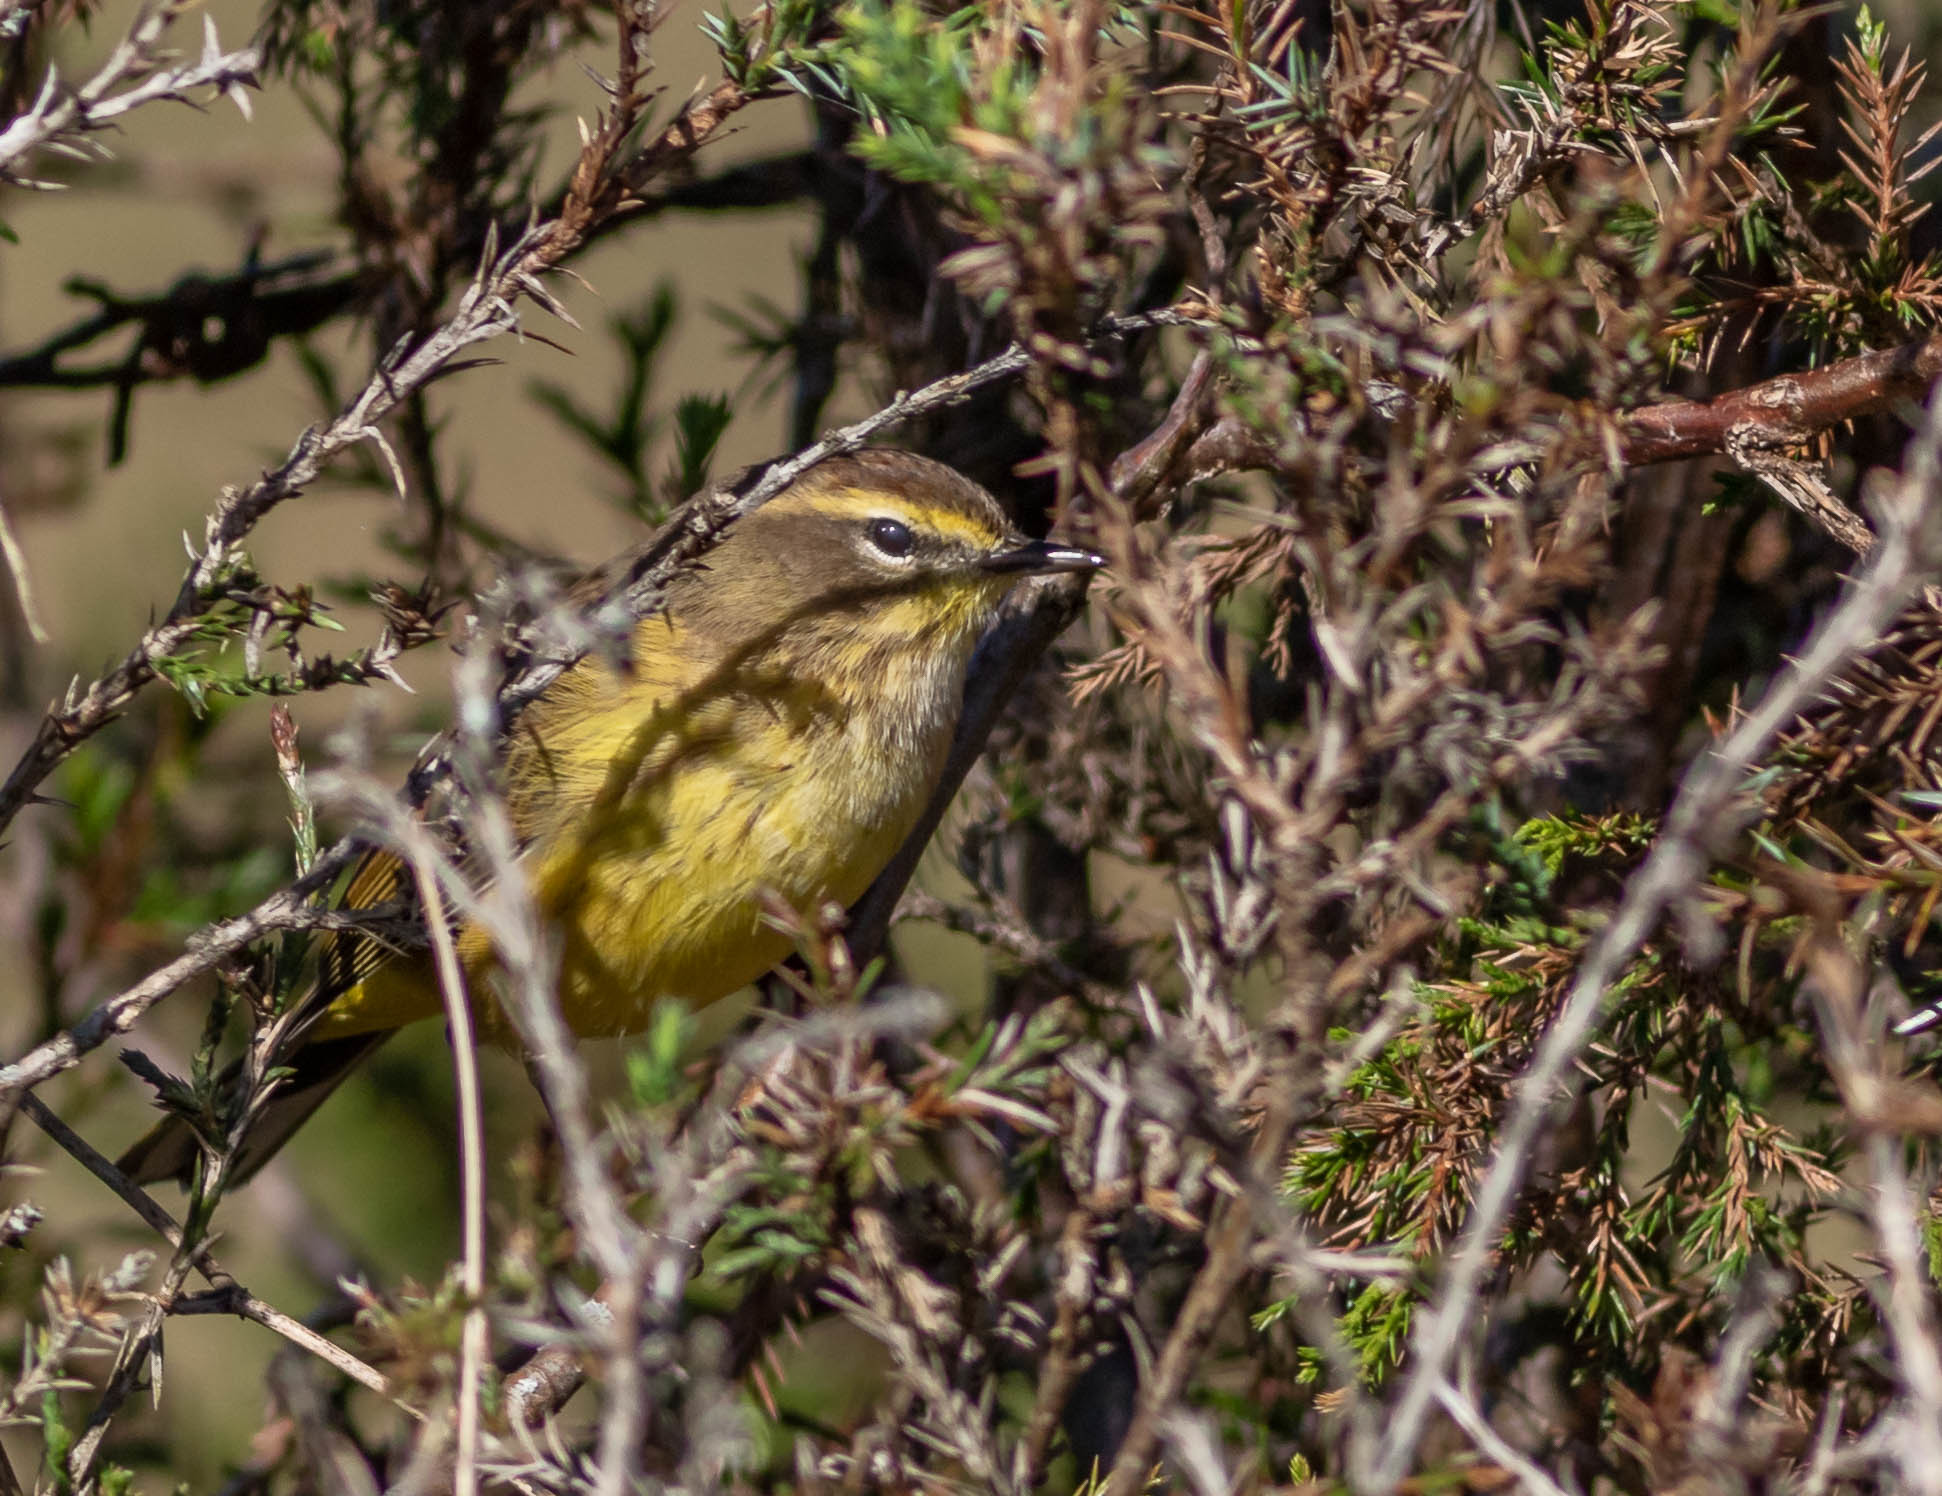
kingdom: Animalia
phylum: Chordata
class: Aves
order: Passeriformes
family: Parulidae
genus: Setophaga
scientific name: Setophaga palmarum
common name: Palm warbler
